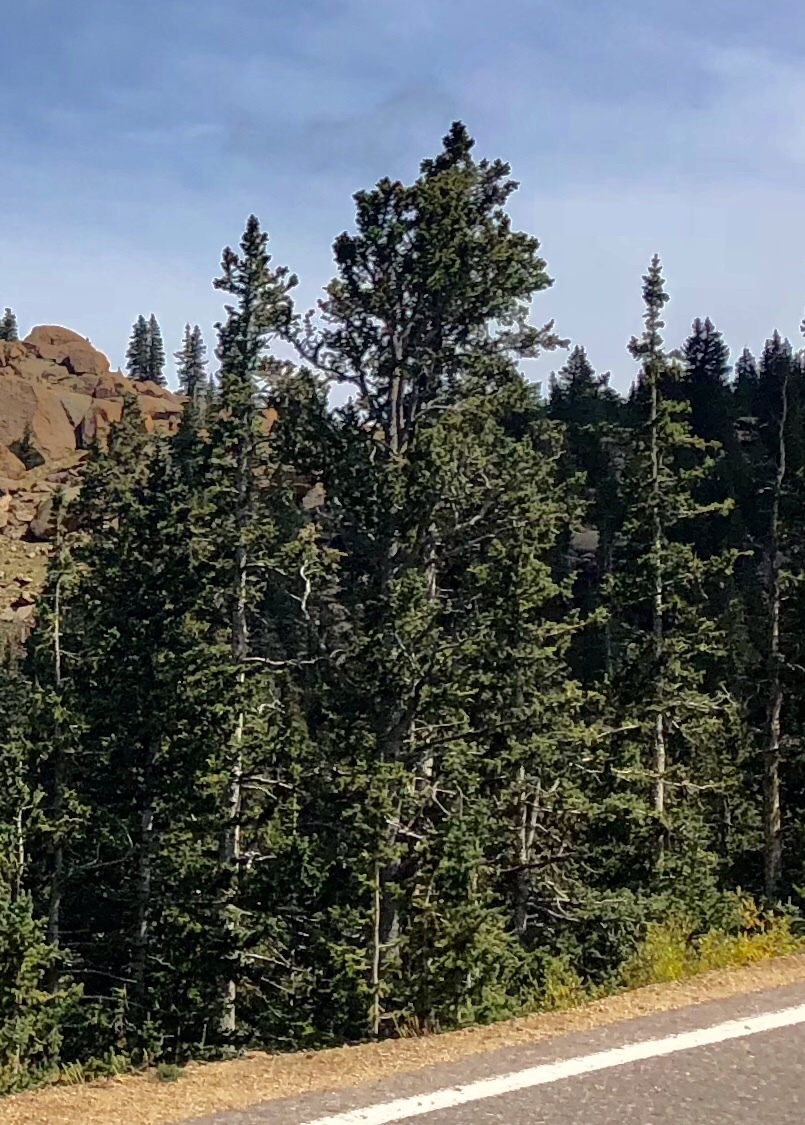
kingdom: Plantae
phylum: Tracheophyta
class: Pinopsida
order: Pinales
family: Pinaceae
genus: Picea
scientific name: Picea engelmannii
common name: Engelmann spruce
